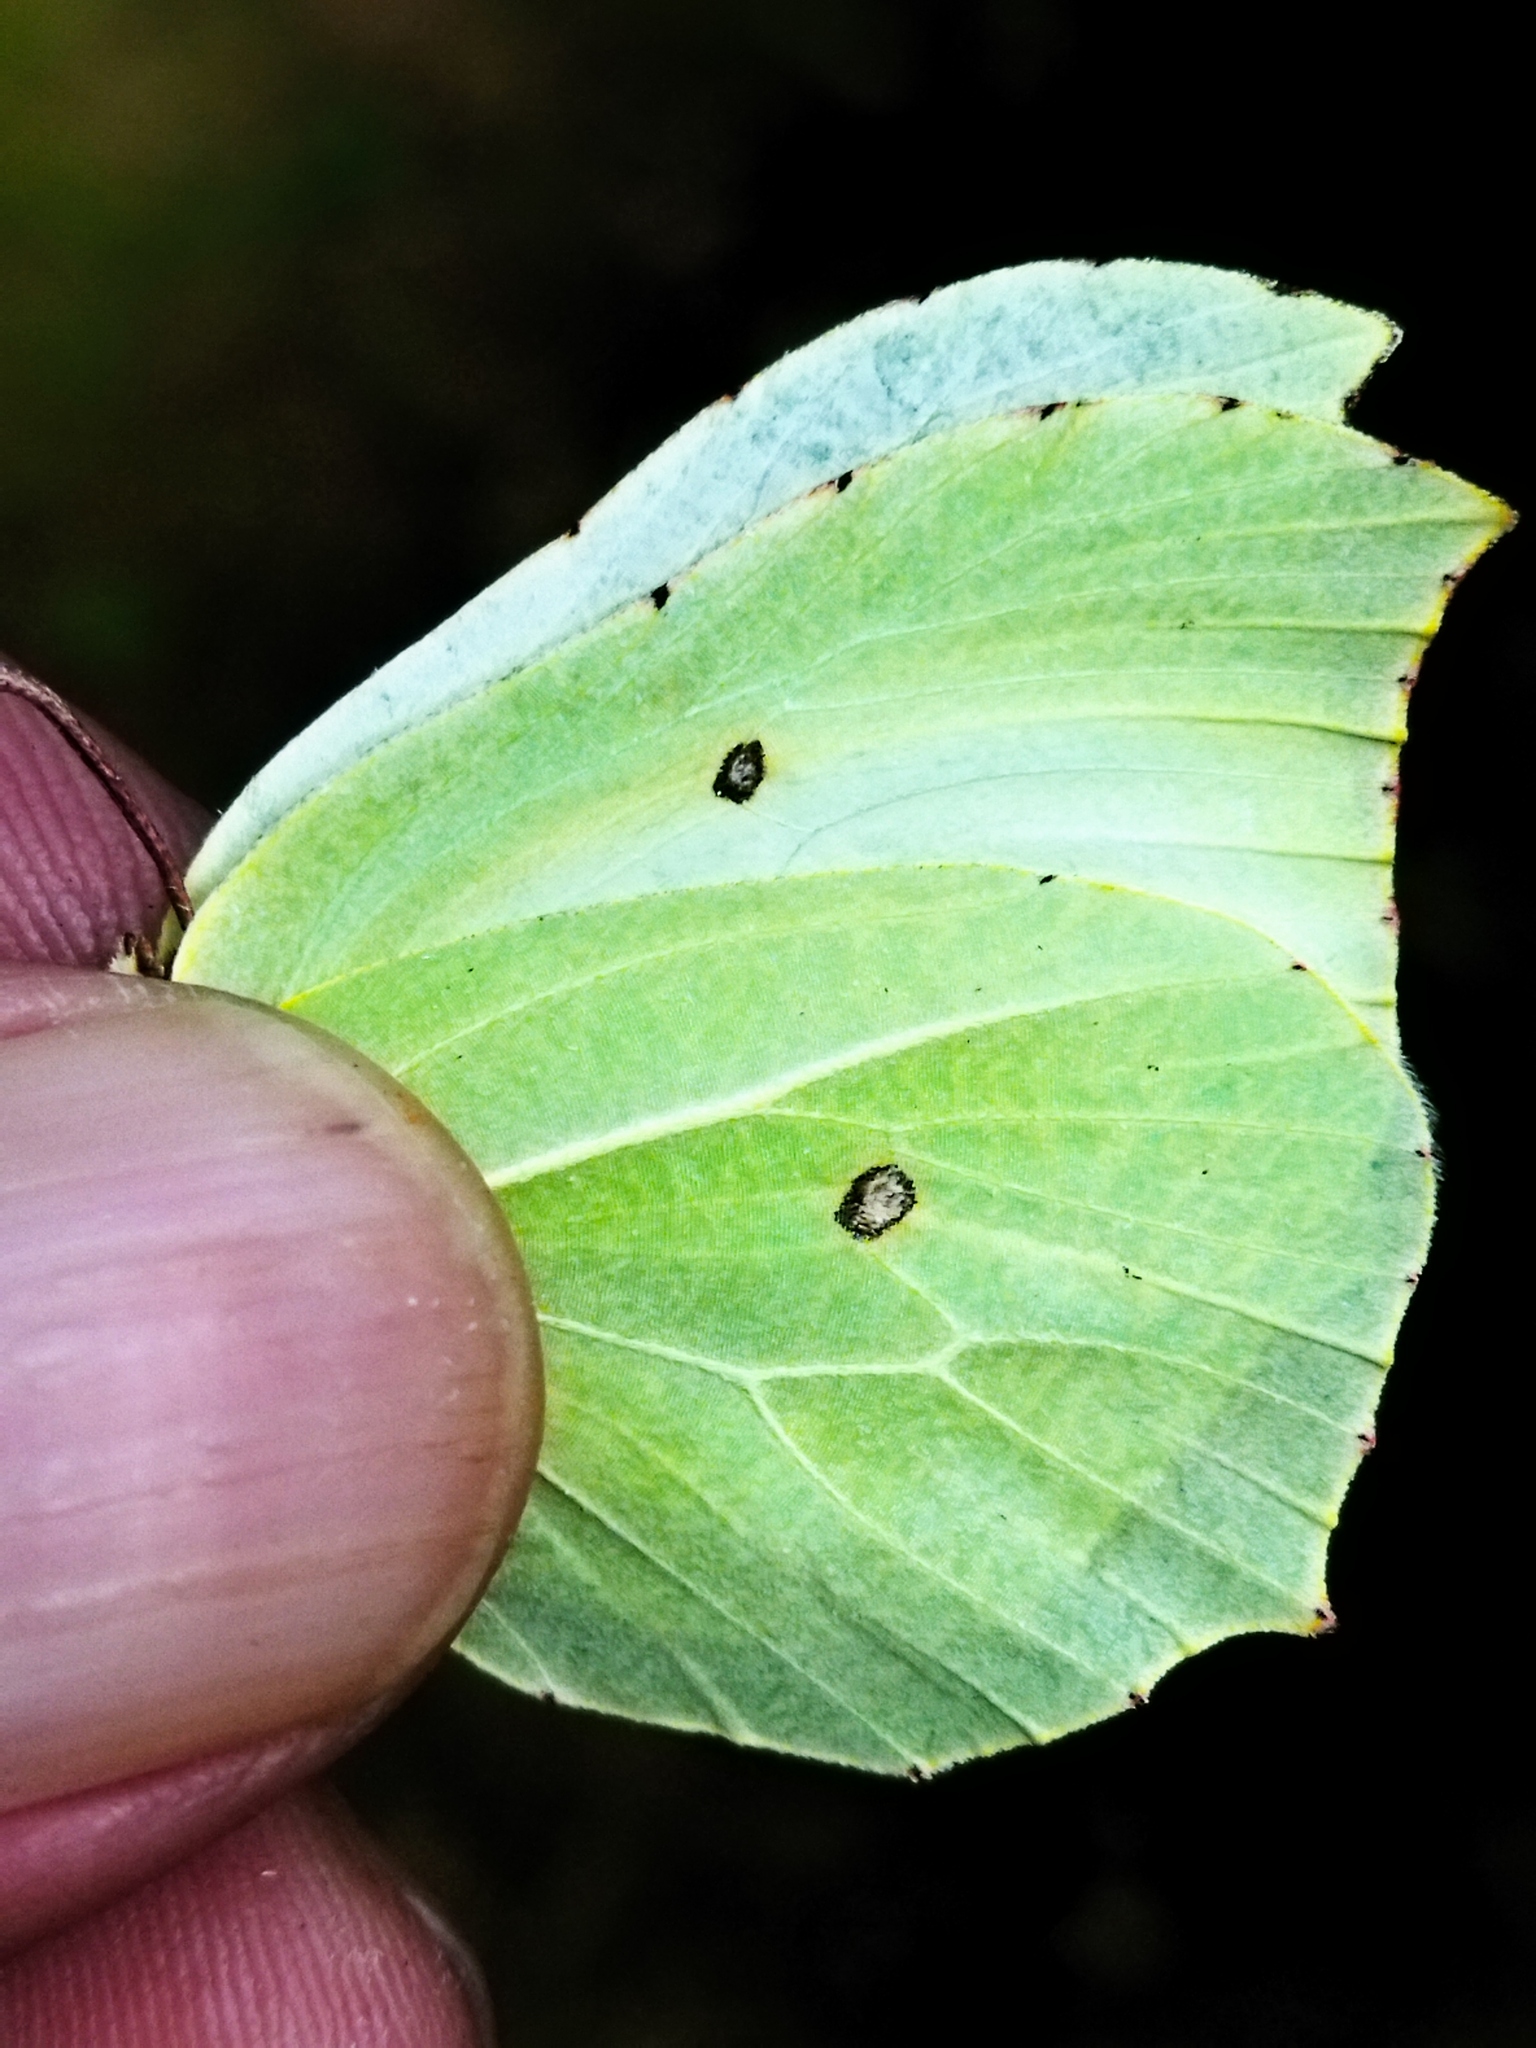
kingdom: Animalia
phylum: Arthropoda
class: Insecta
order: Lepidoptera
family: Pieridae
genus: Gonepteryx
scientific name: Gonepteryx rhamni
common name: Brimstone
